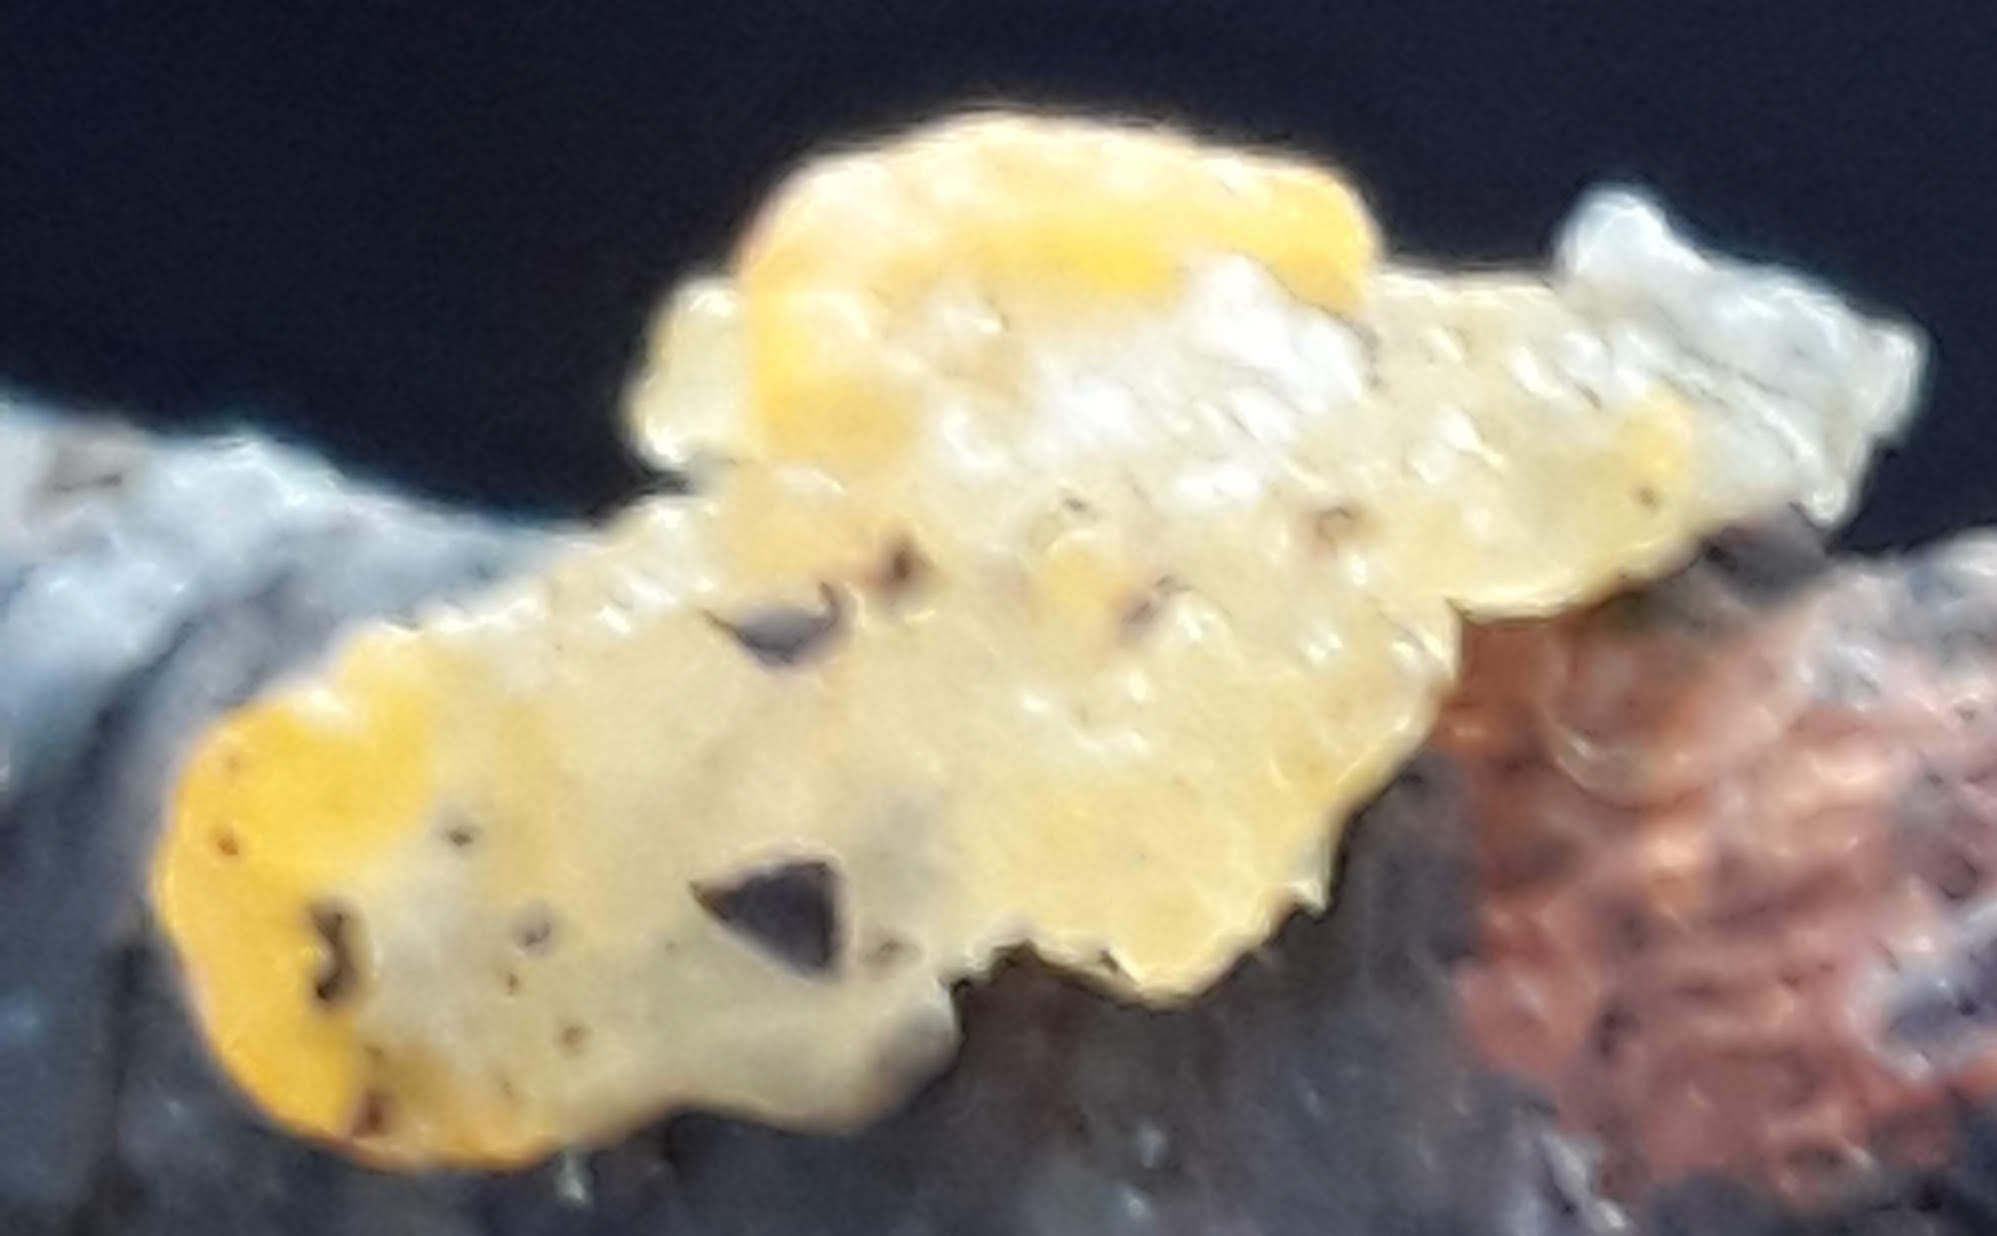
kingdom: Fungi
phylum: Basidiomycota
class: Tremellomycetes
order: Tremellales
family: Tremellaceae
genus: Tremella
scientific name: Tremella mesenterica
